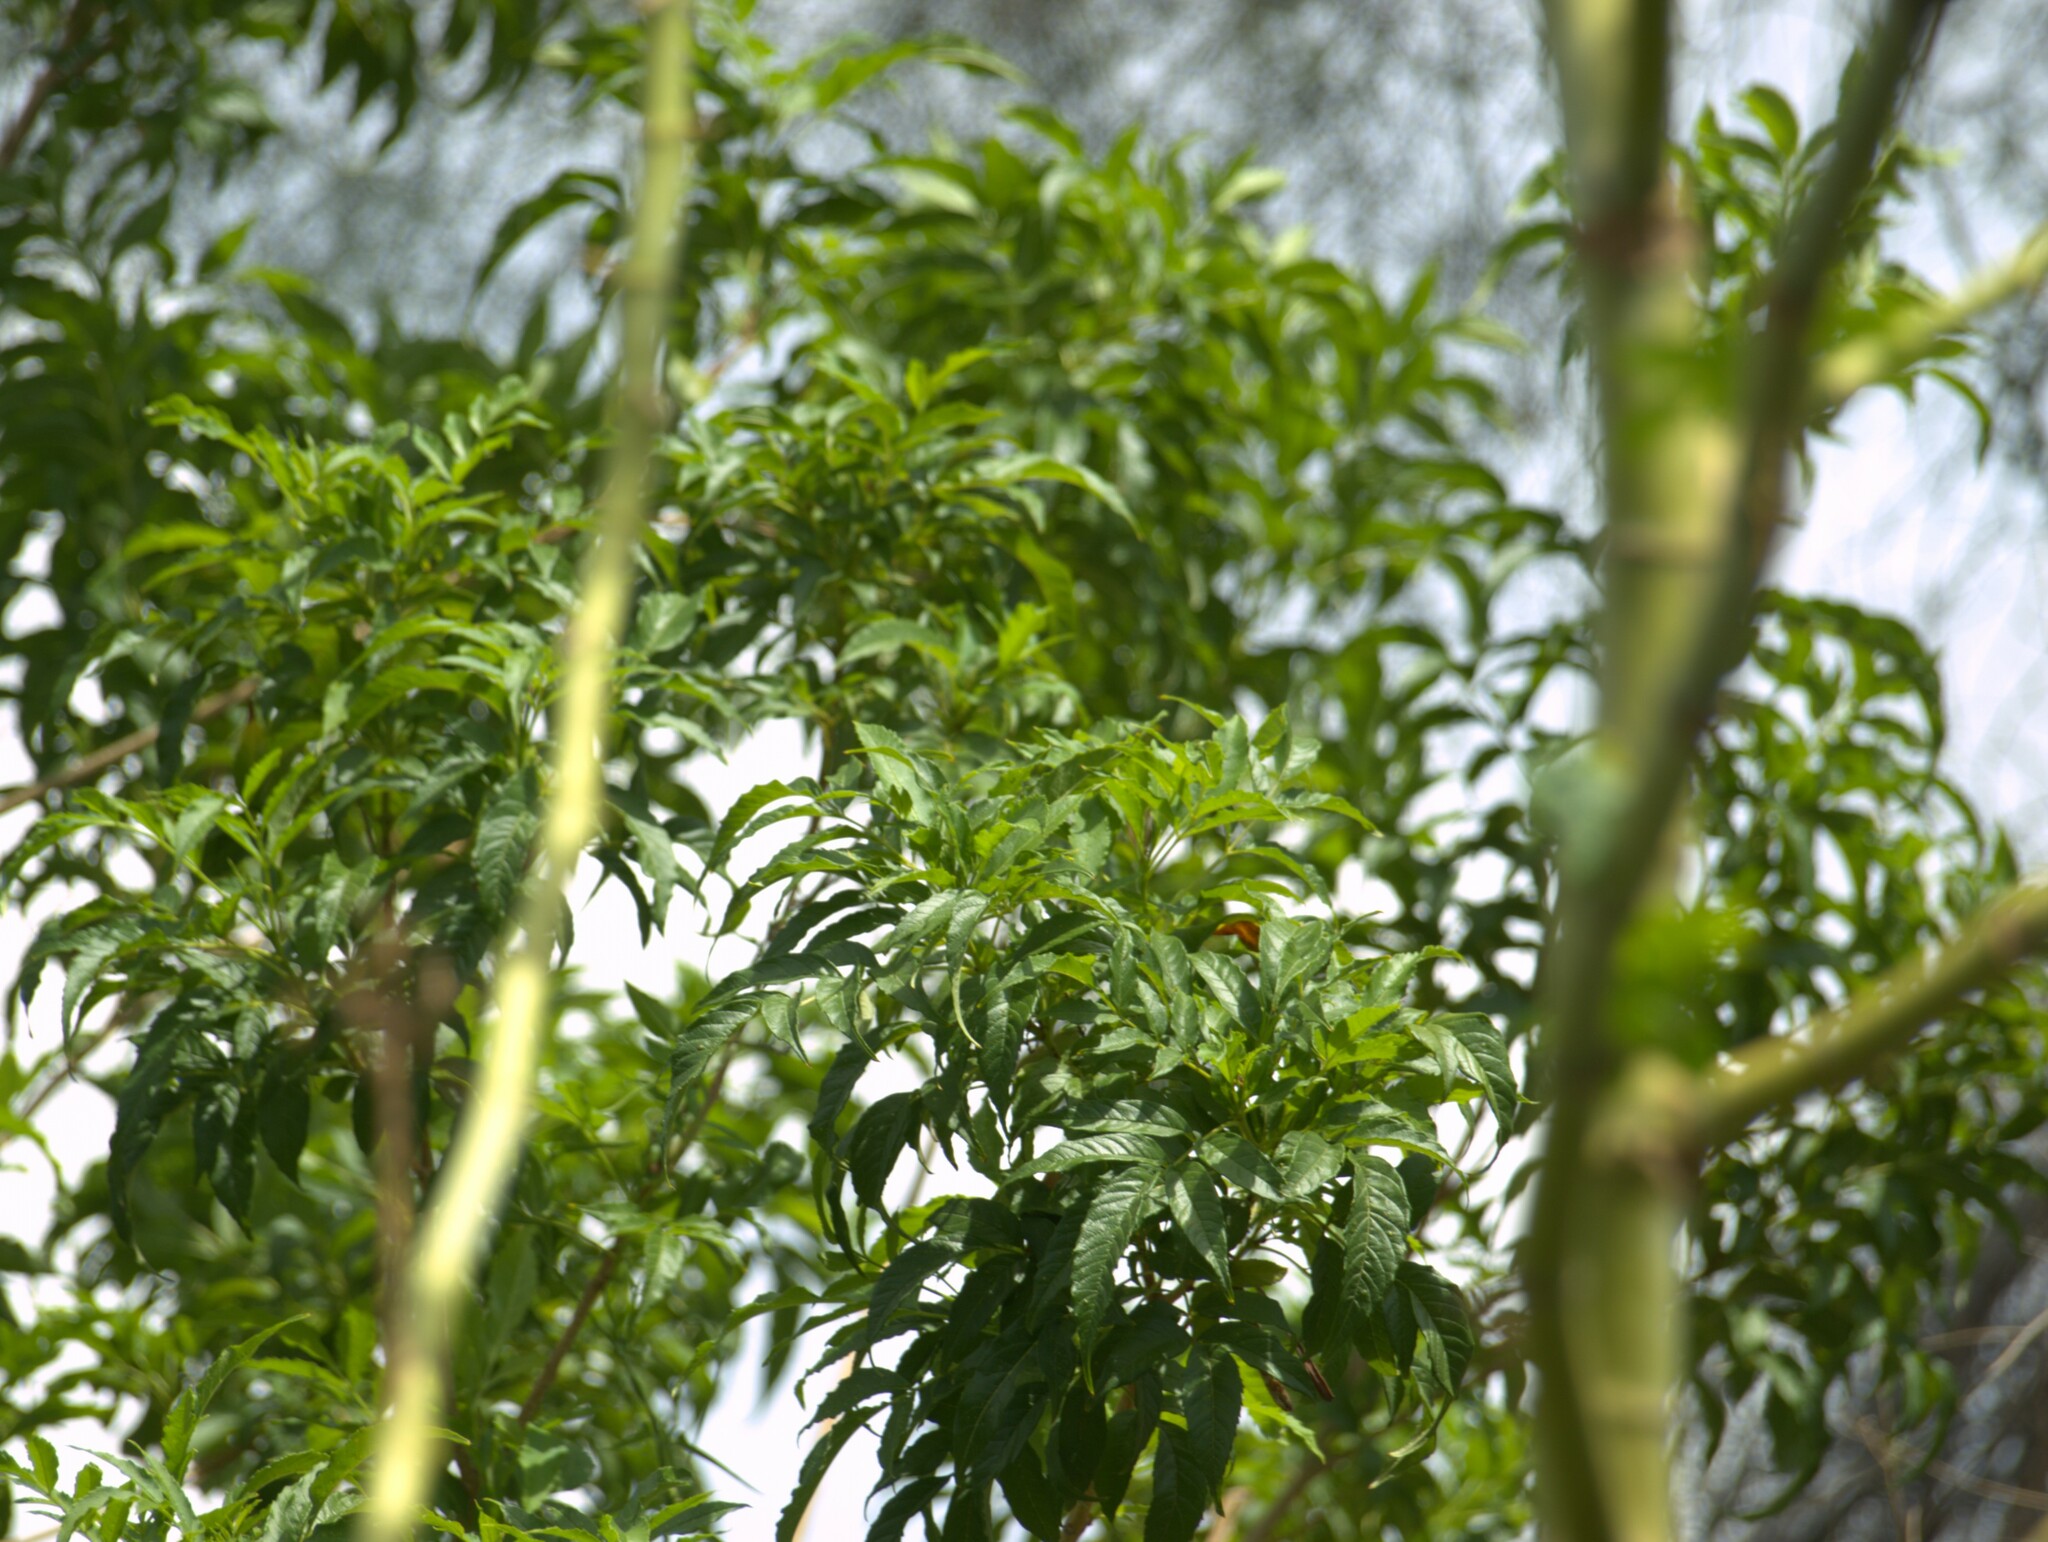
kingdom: Plantae
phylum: Tracheophyta
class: Magnoliopsida
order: Lamiales
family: Bignoniaceae
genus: Tecoma
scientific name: Tecoma stans
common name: Yellow trumpetbush
